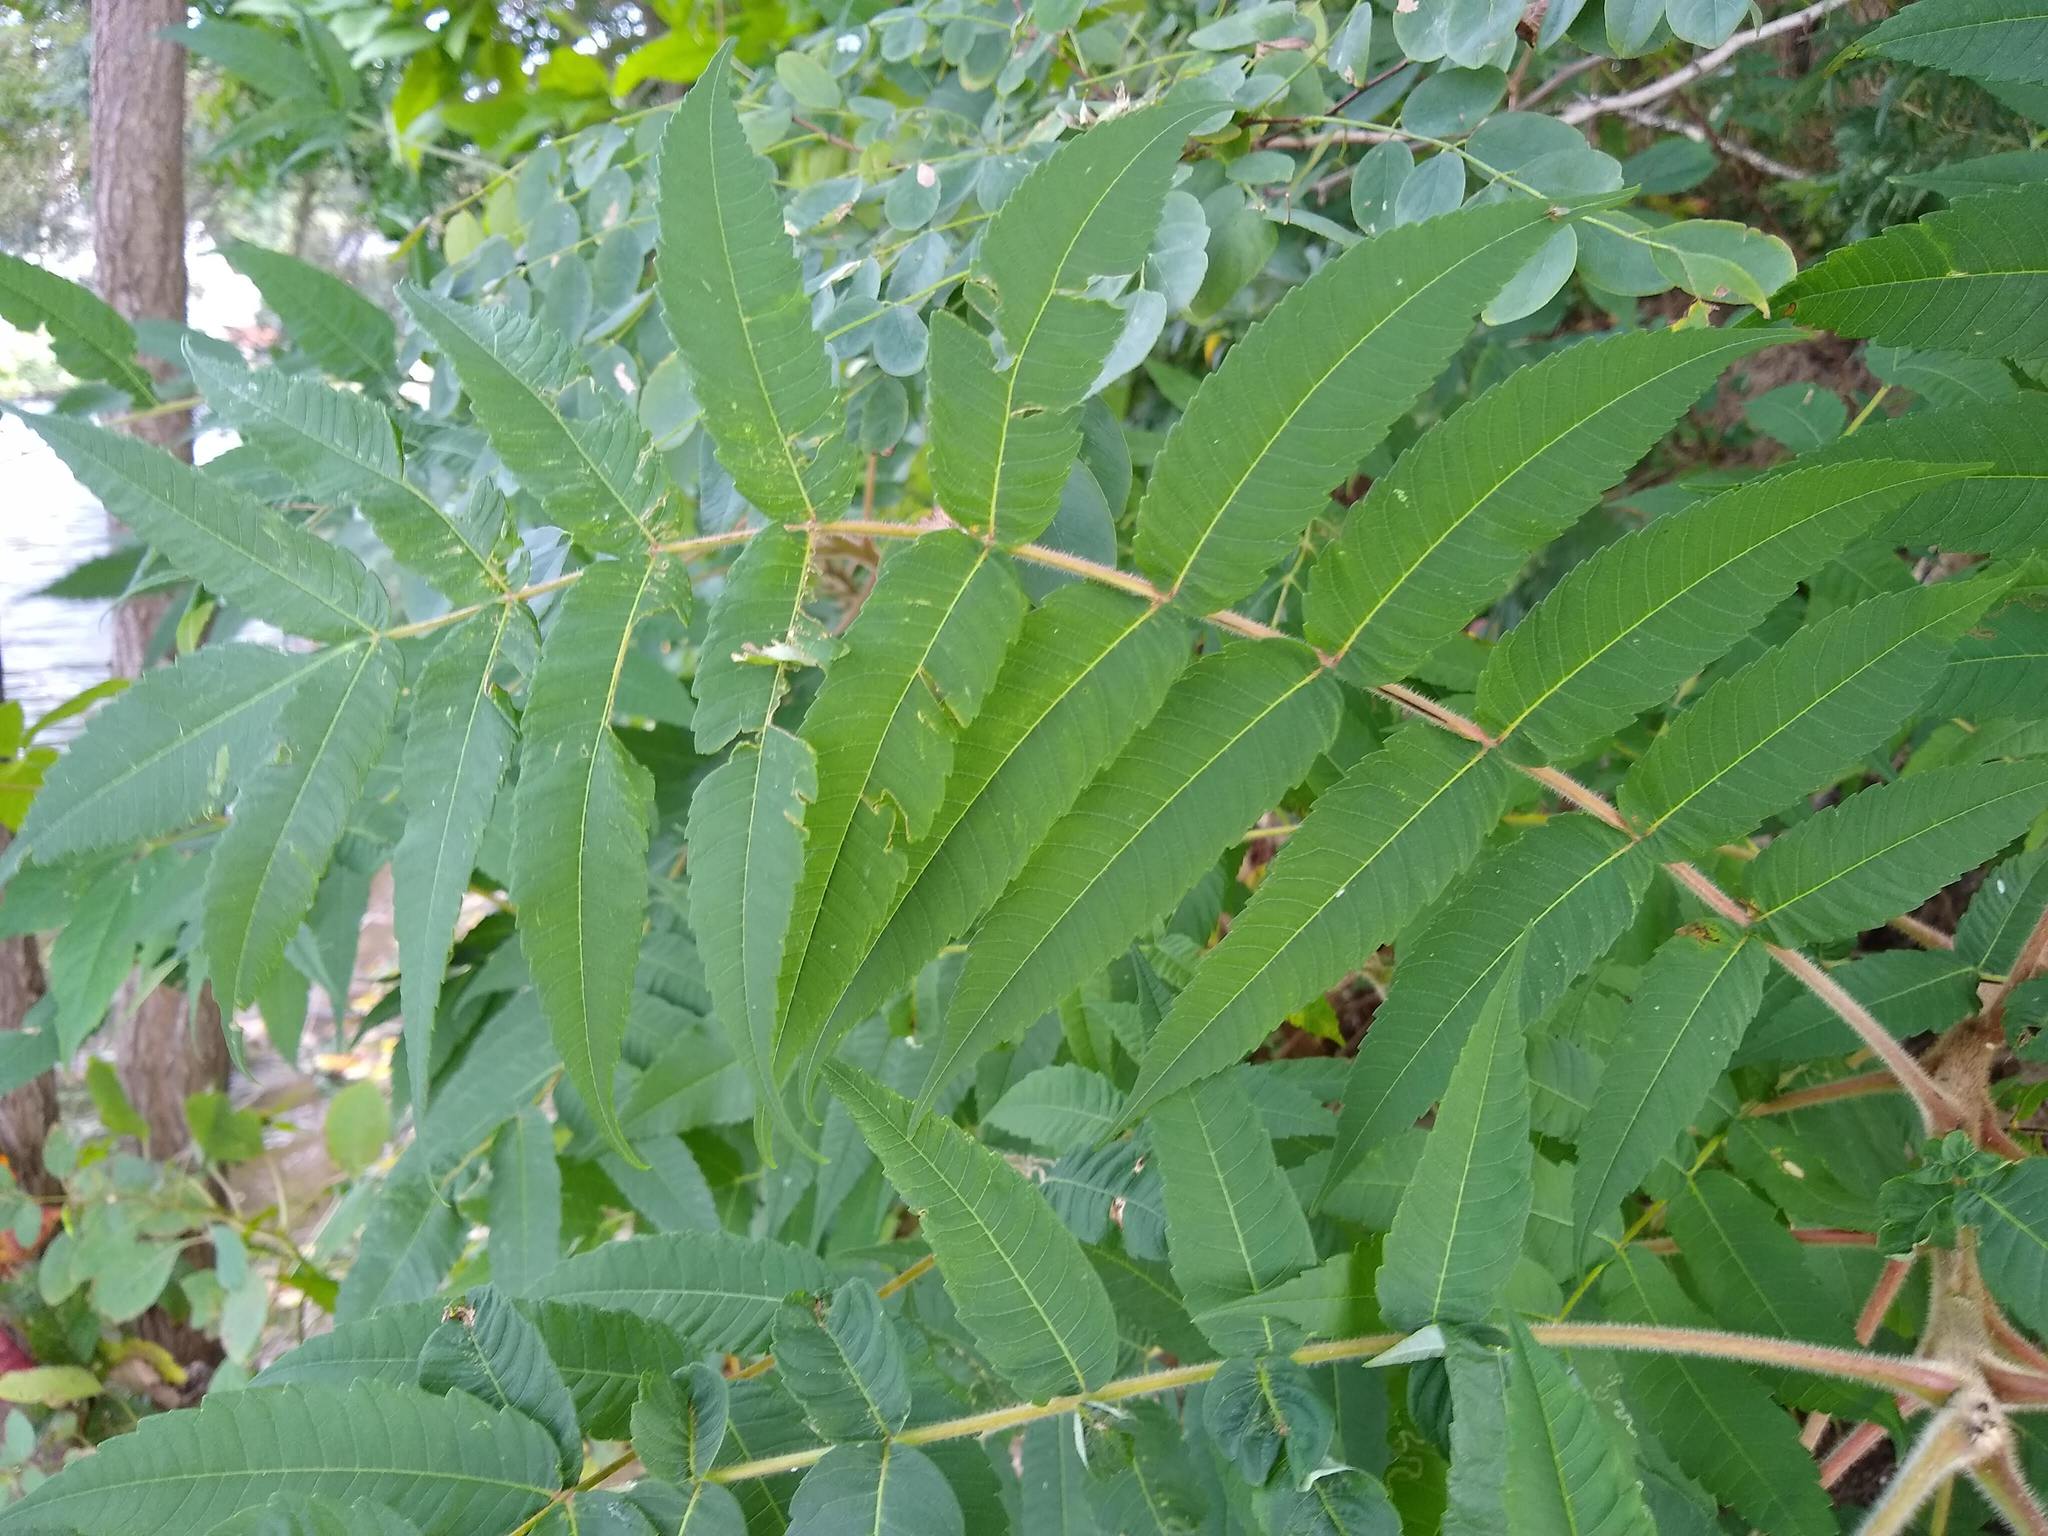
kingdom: Plantae
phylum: Tracheophyta
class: Magnoliopsida
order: Sapindales
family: Anacardiaceae
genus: Rhus
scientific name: Rhus typhina
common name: Staghorn sumac
